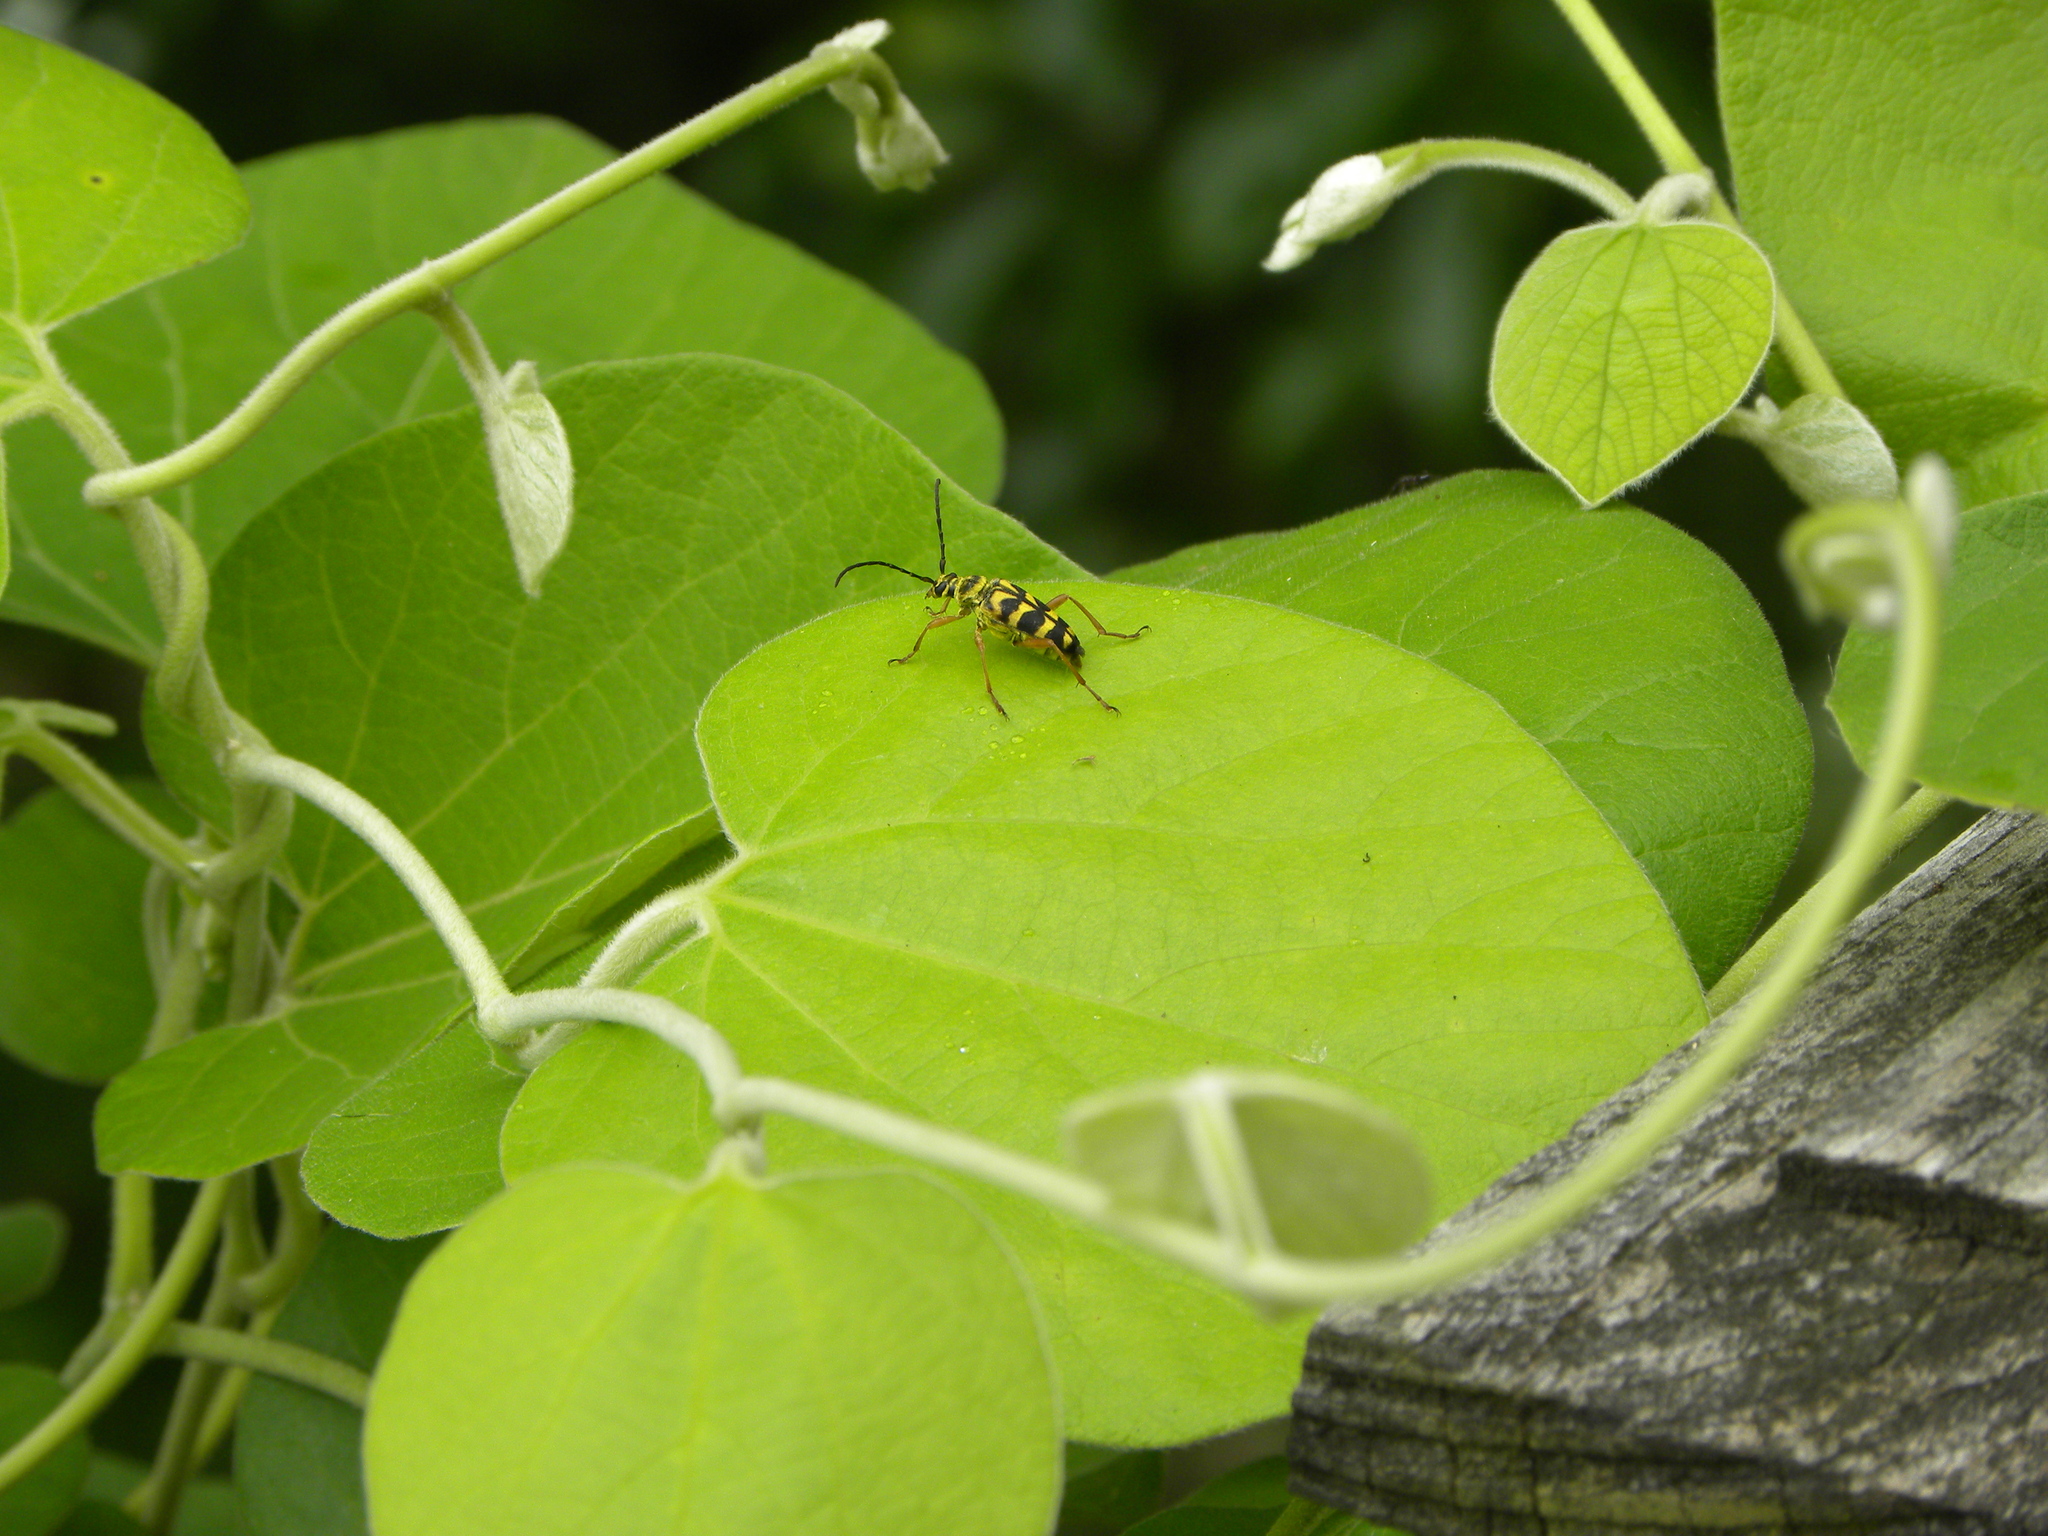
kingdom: Animalia
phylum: Arthropoda
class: Insecta
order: Coleoptera
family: Cerambycidae
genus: Strophiona
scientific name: Strophiona nitens
